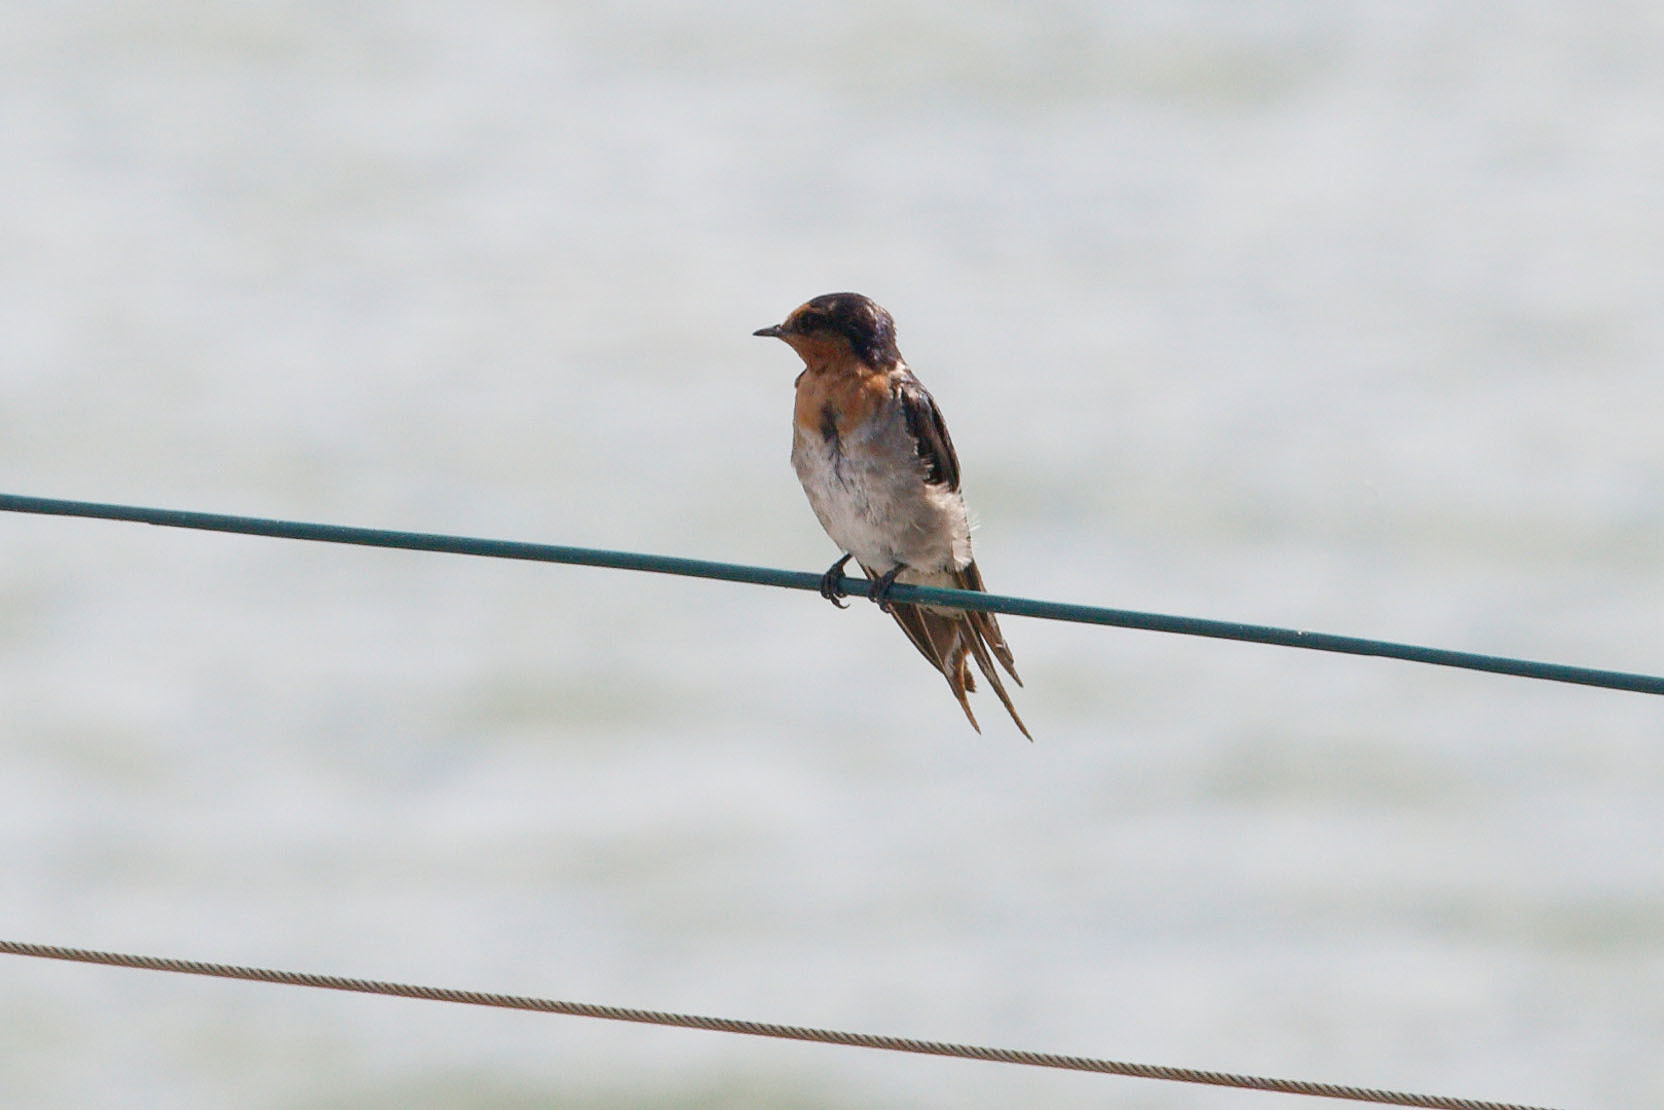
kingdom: Animalia
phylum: Chordata
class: Aves
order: Passeriformes
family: Hirundinidae
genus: Hirundo
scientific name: Hirundo neoxena
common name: Welcome swallow
